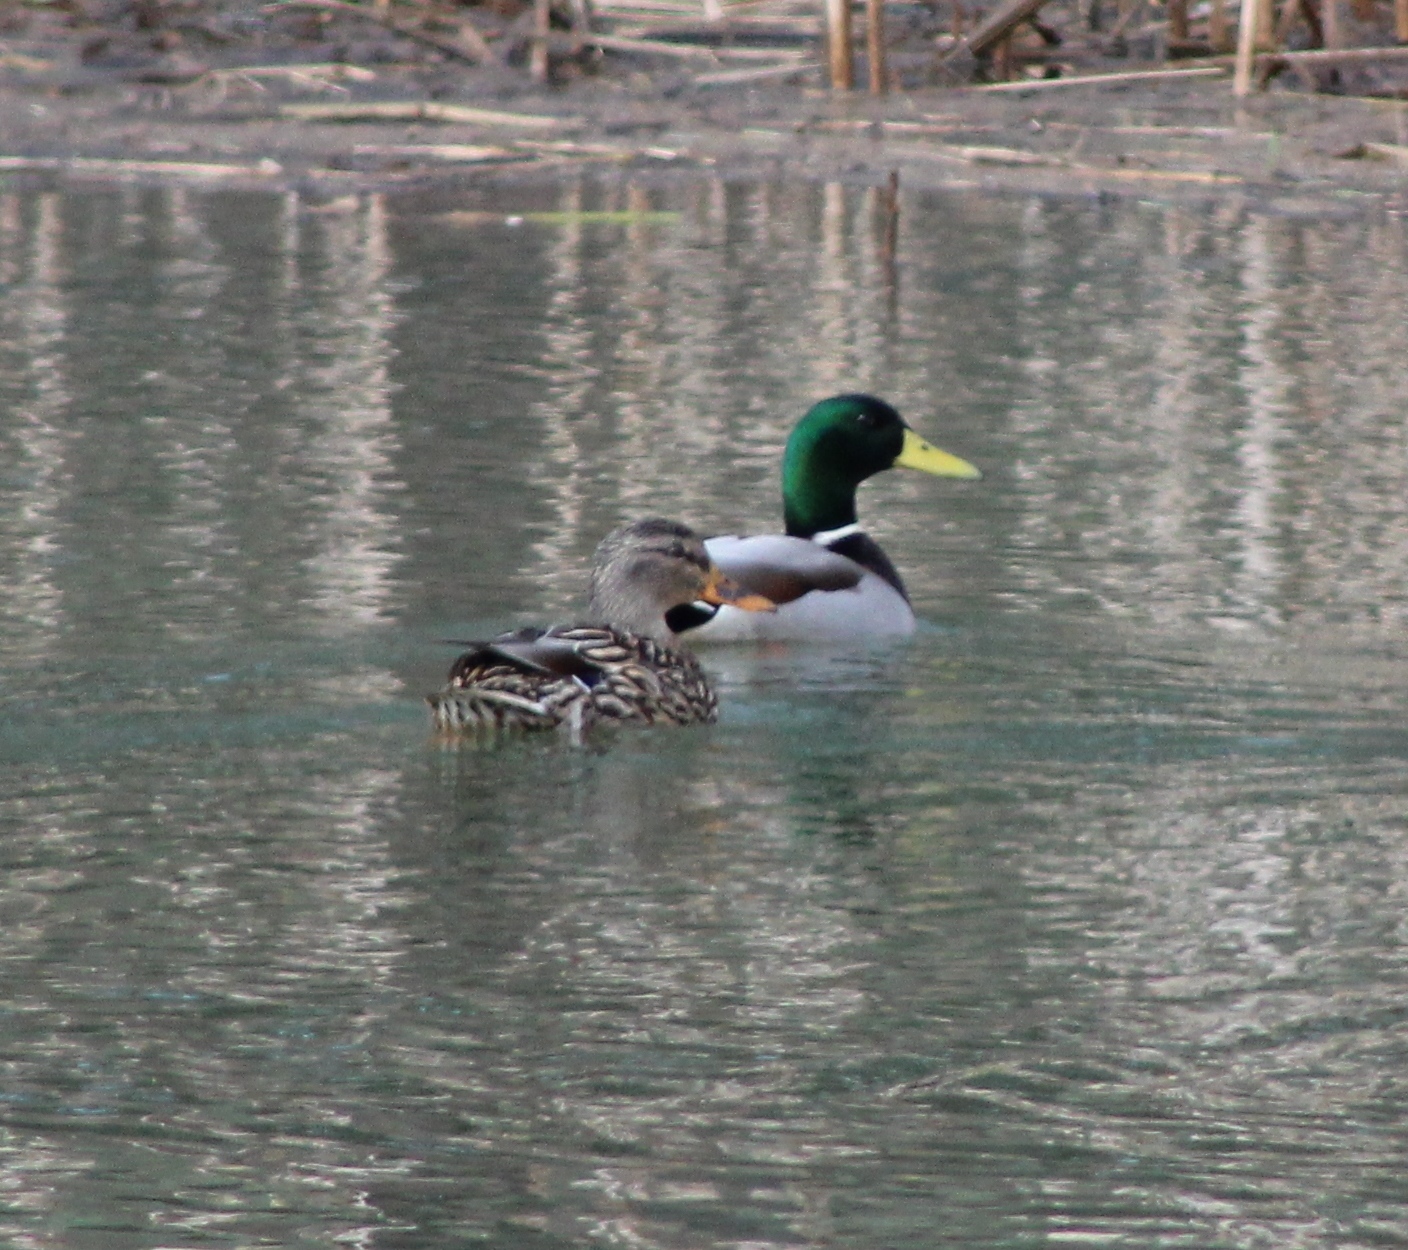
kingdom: Animalia
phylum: Chordata
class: Aves
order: Anseriformes
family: Anatidae
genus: Anas
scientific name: Anas platyrhynchos
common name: Mallard
